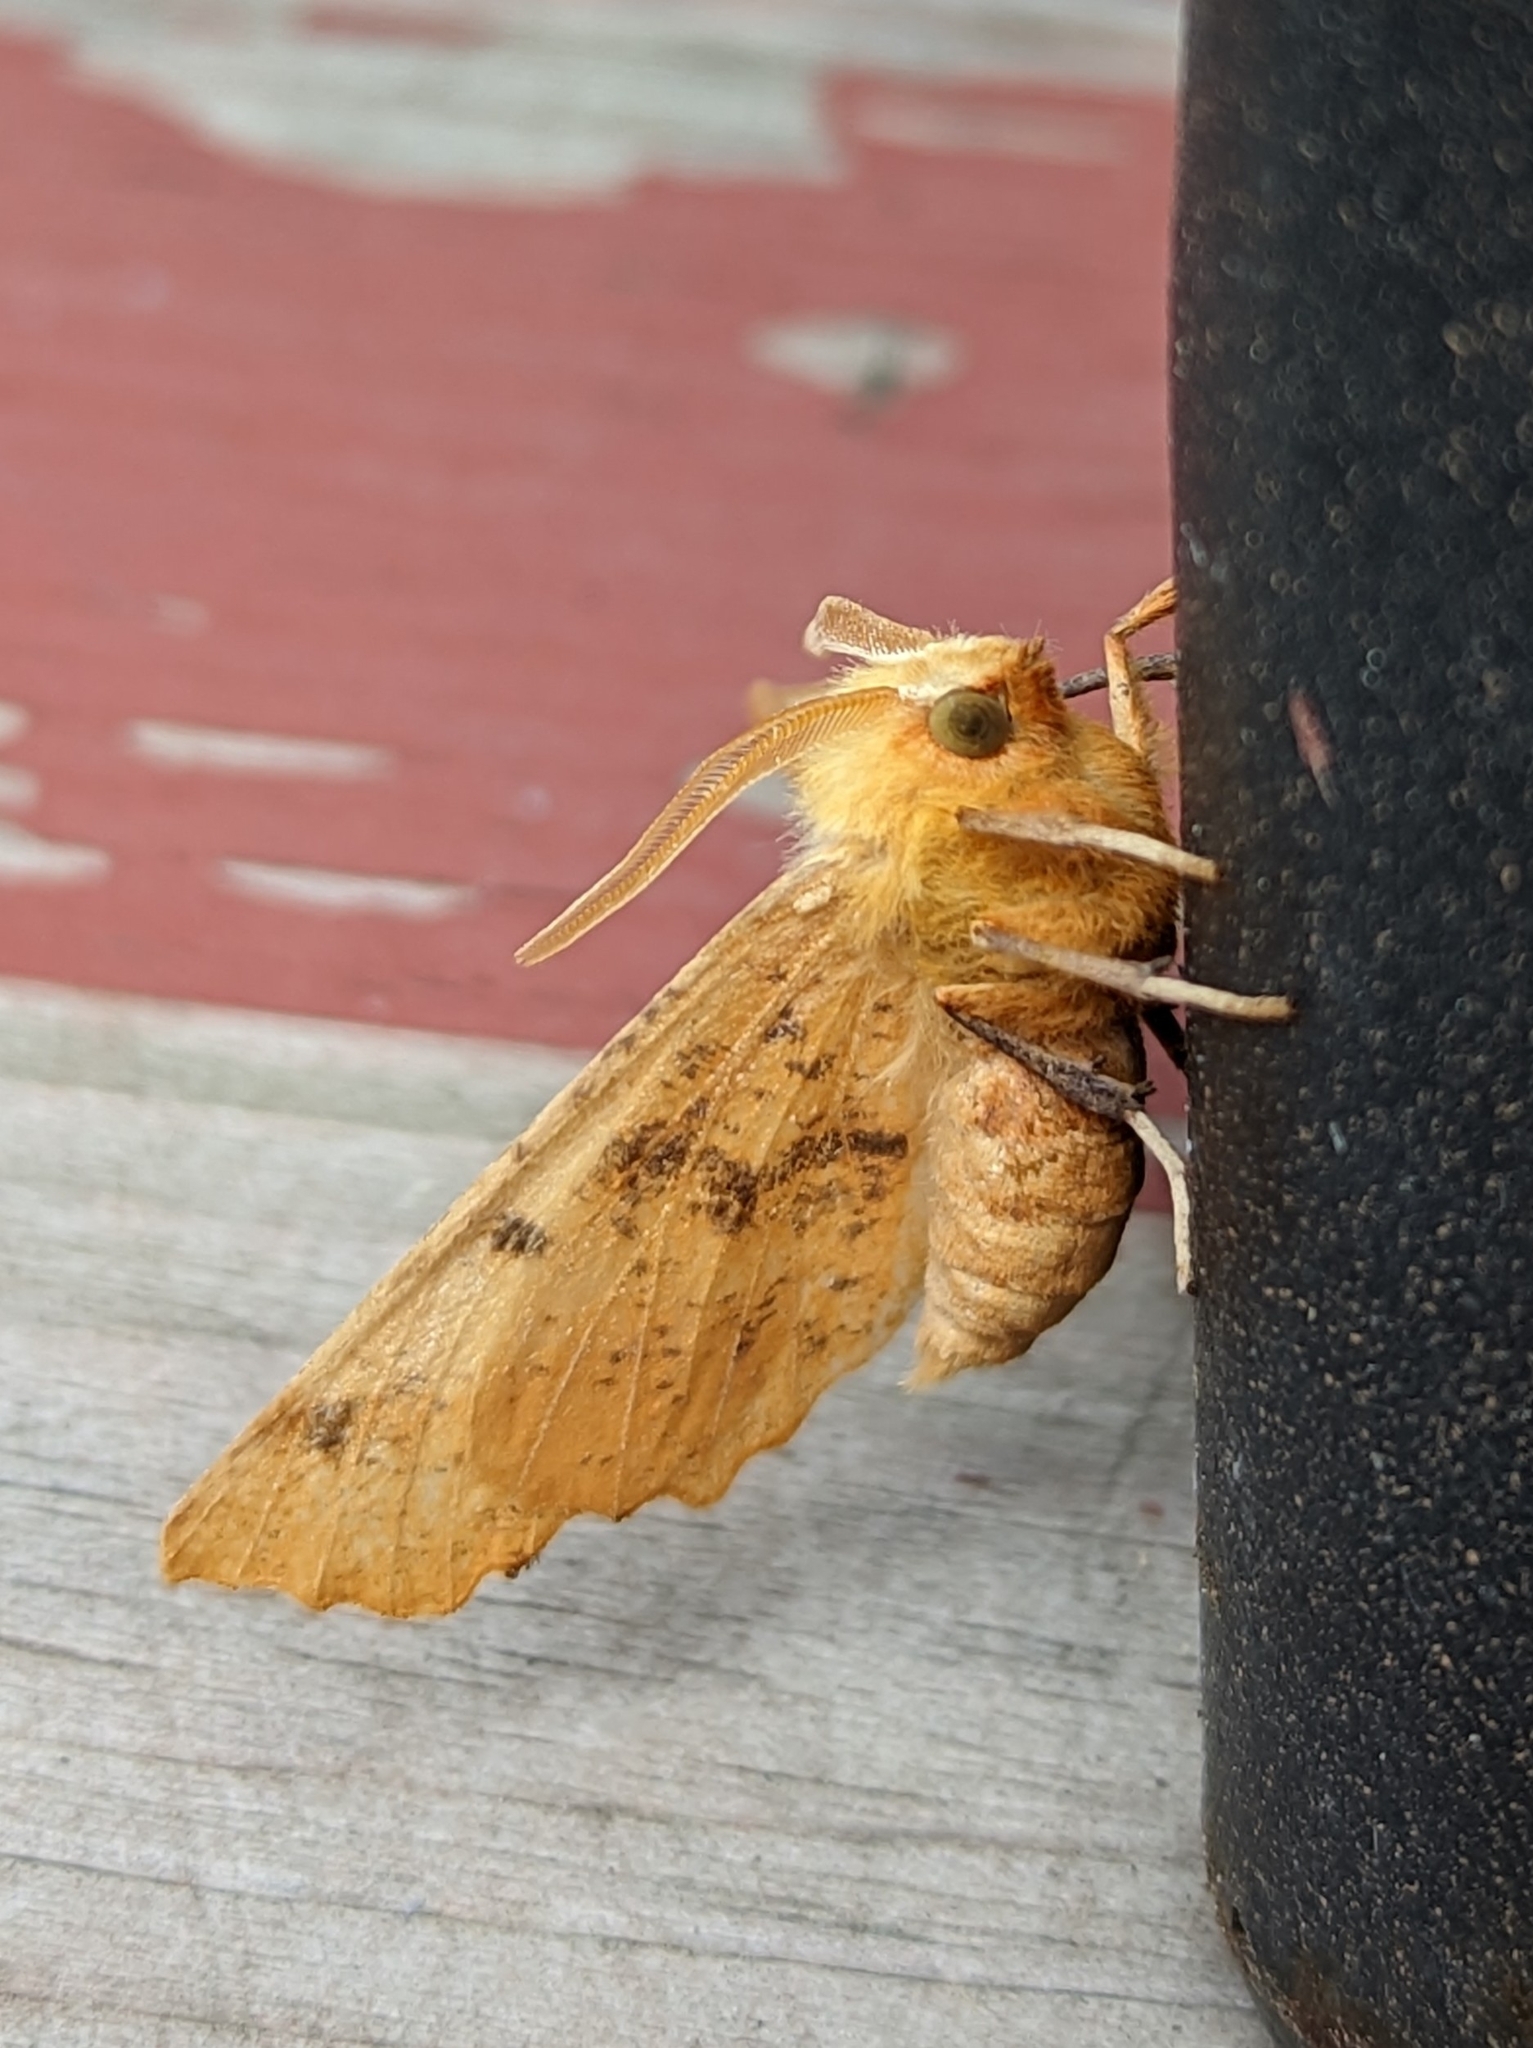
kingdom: Animalia
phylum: Arthropoda
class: Insecta
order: Lepidoptera
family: Geometridae
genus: Ennomos
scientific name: Ennomos magnaria
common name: Maple spanworm
